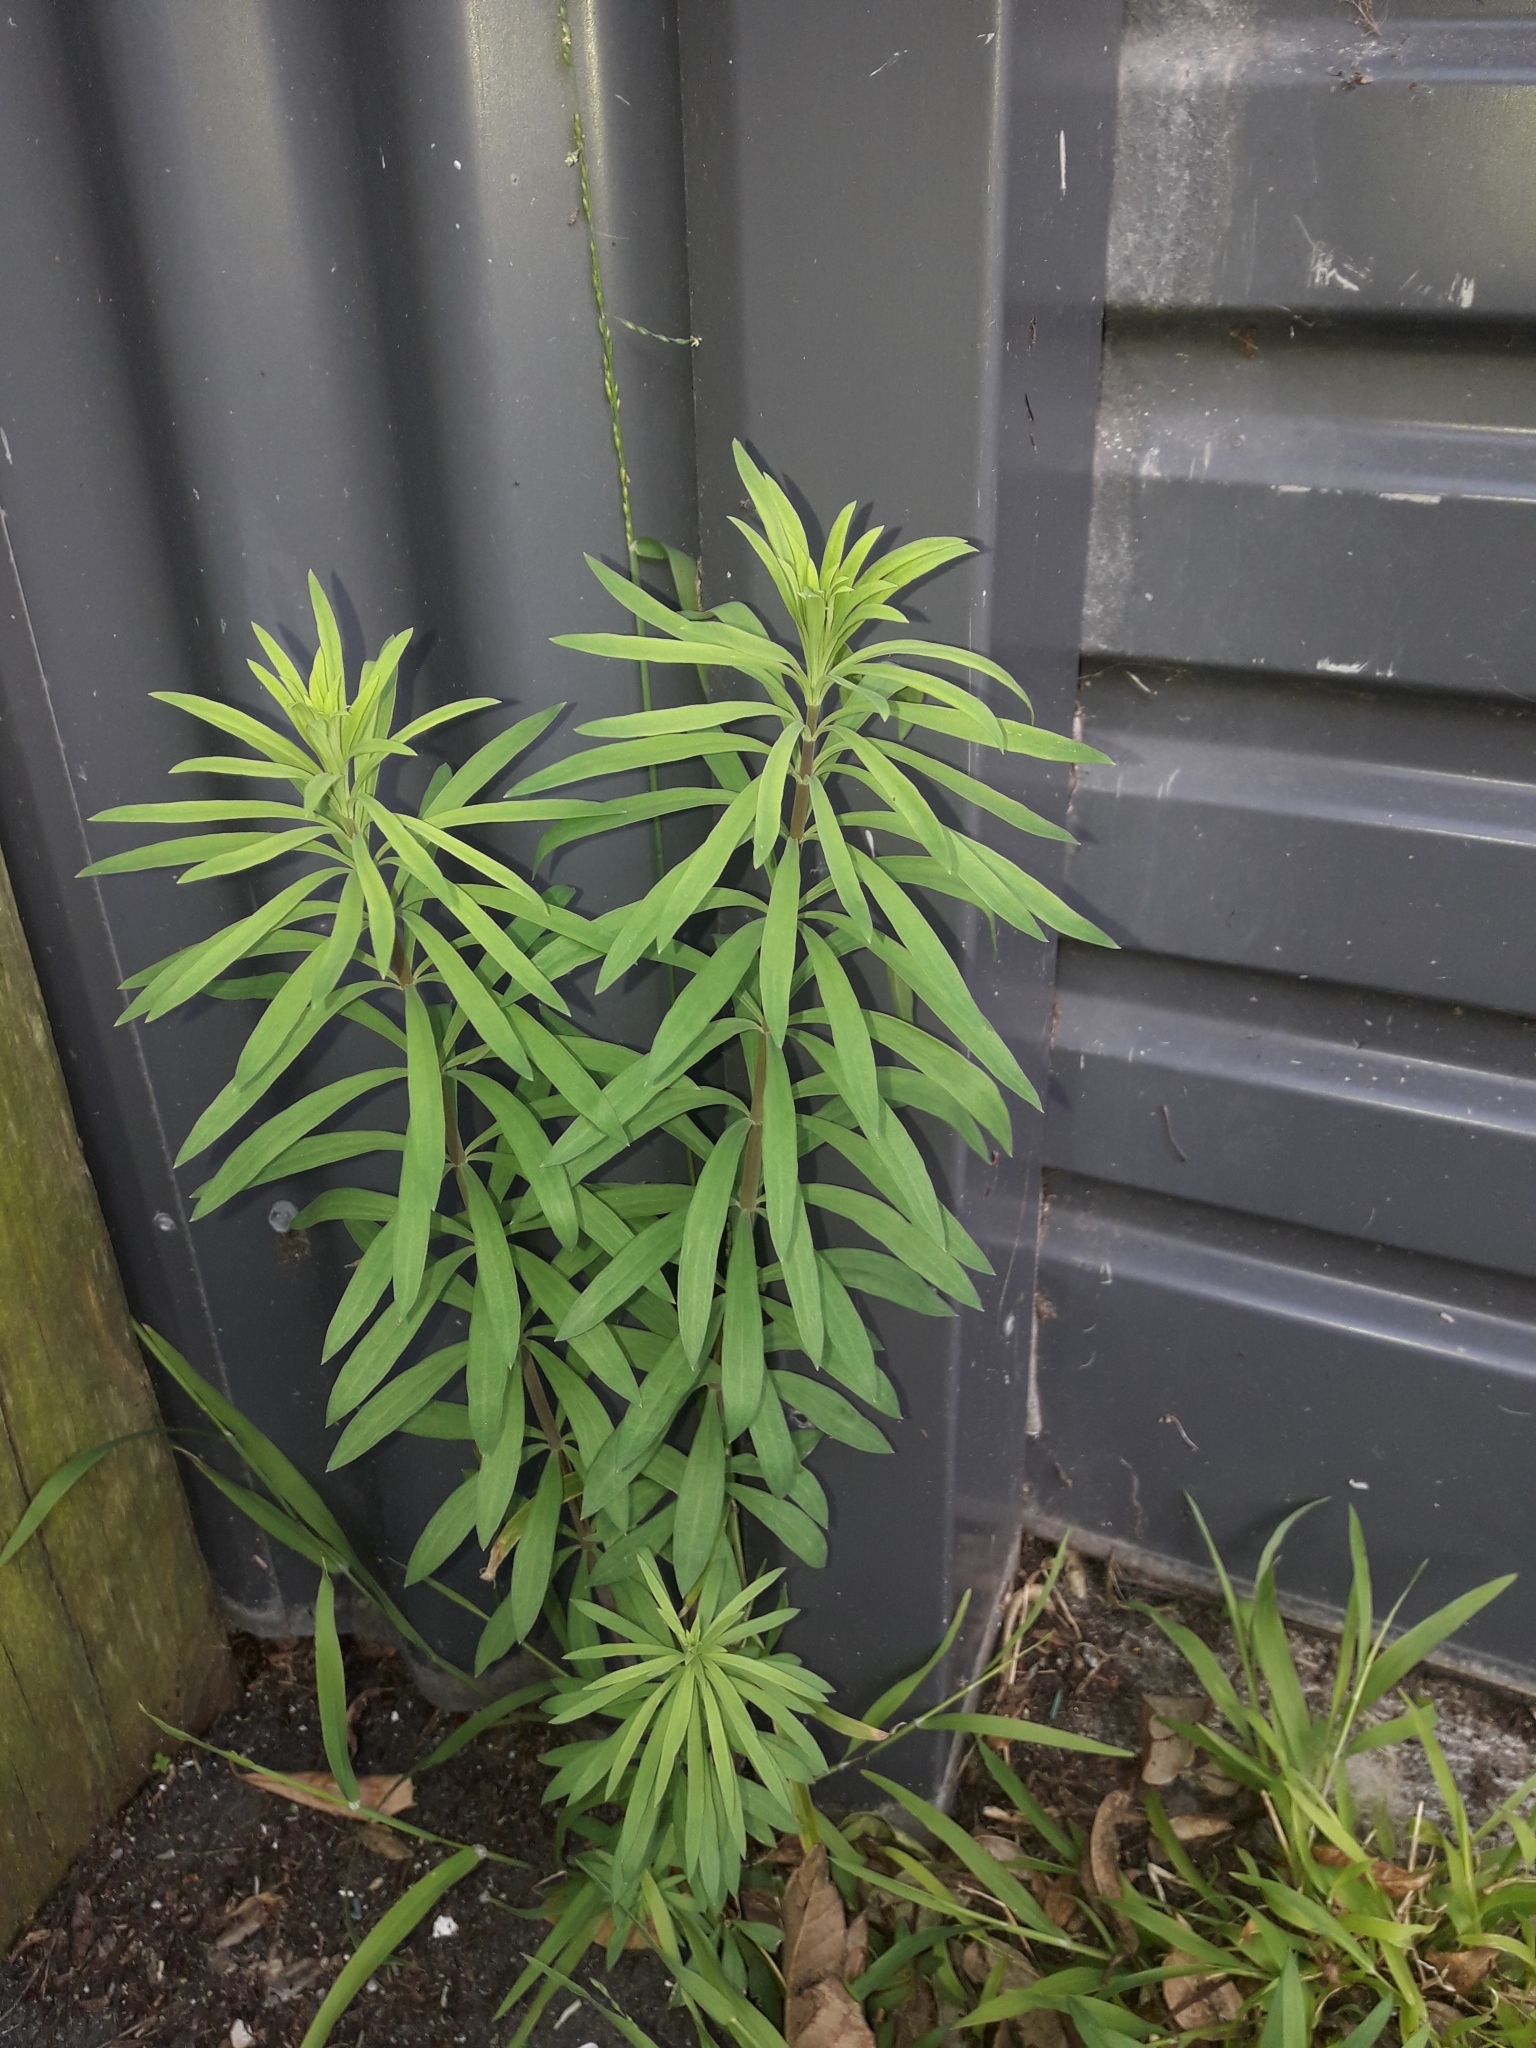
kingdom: Plantae
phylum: Tracheophyta
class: Magnoliopsida
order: Lamiales
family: Plantaginaceae
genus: Linaria
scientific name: Linaria purpurea
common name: Purple toadflax
